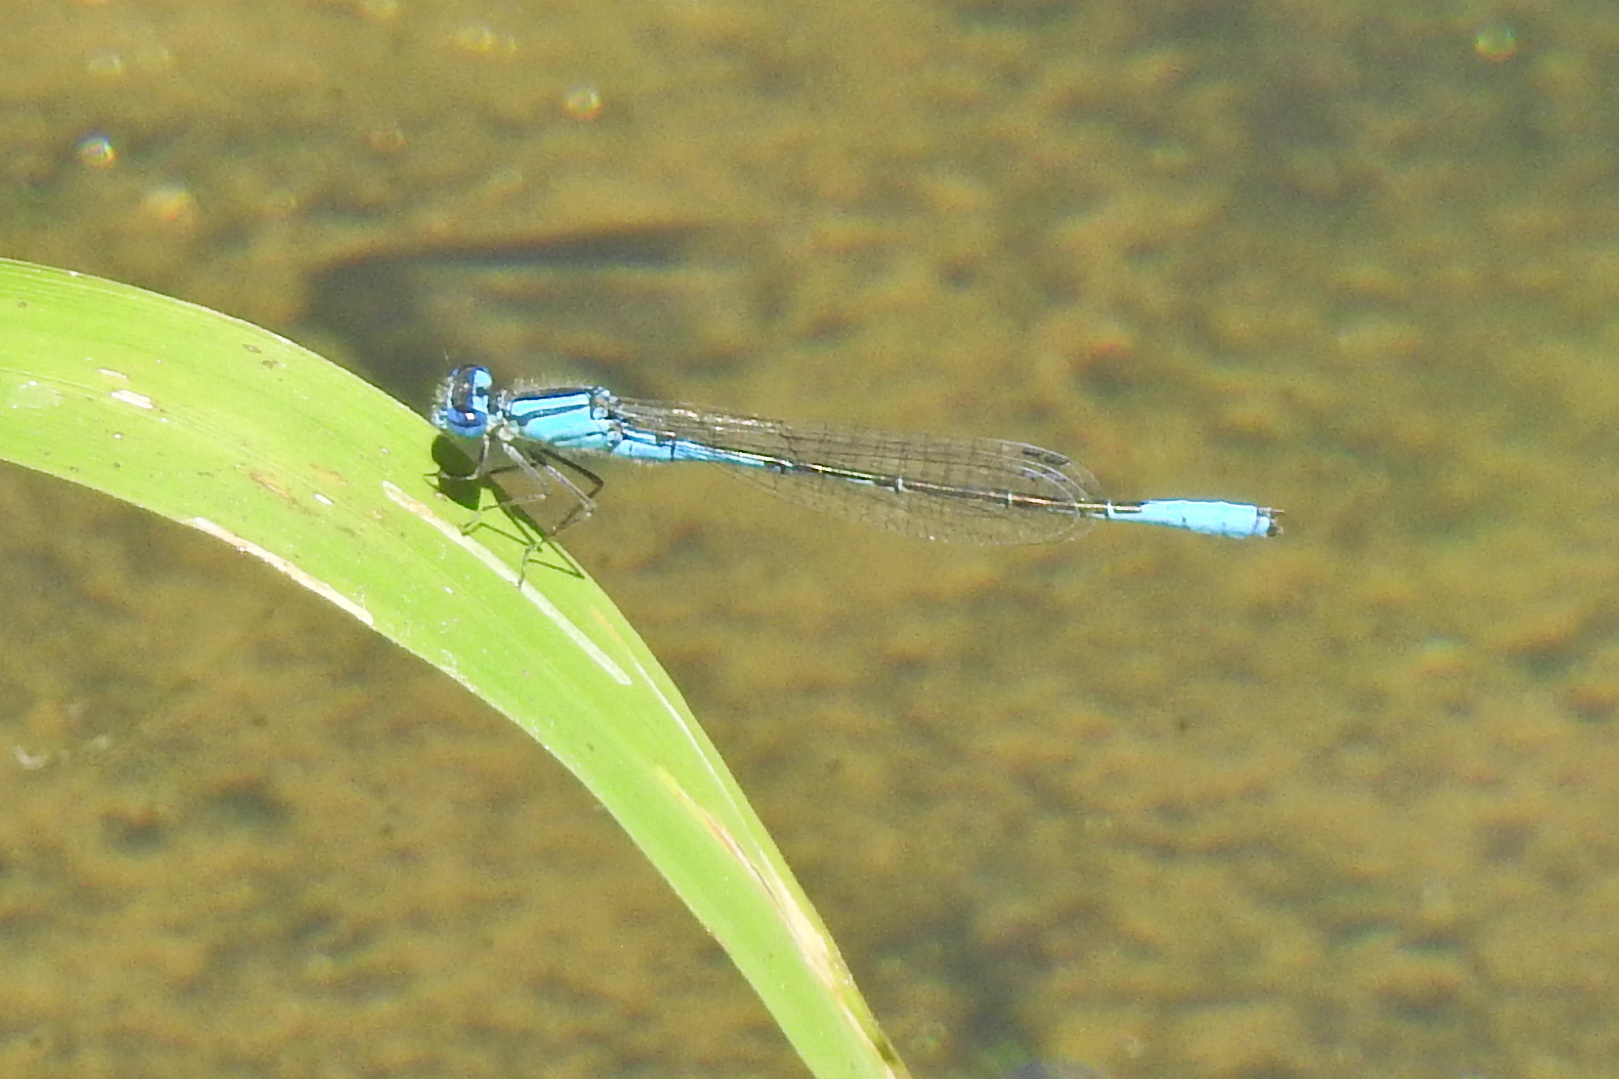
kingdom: Animalia
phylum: Arthropoda
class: Insecta
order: Odonata
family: Coenagrionidae
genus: Enallagma
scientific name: Enallagma aspersum
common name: Azure bluet
